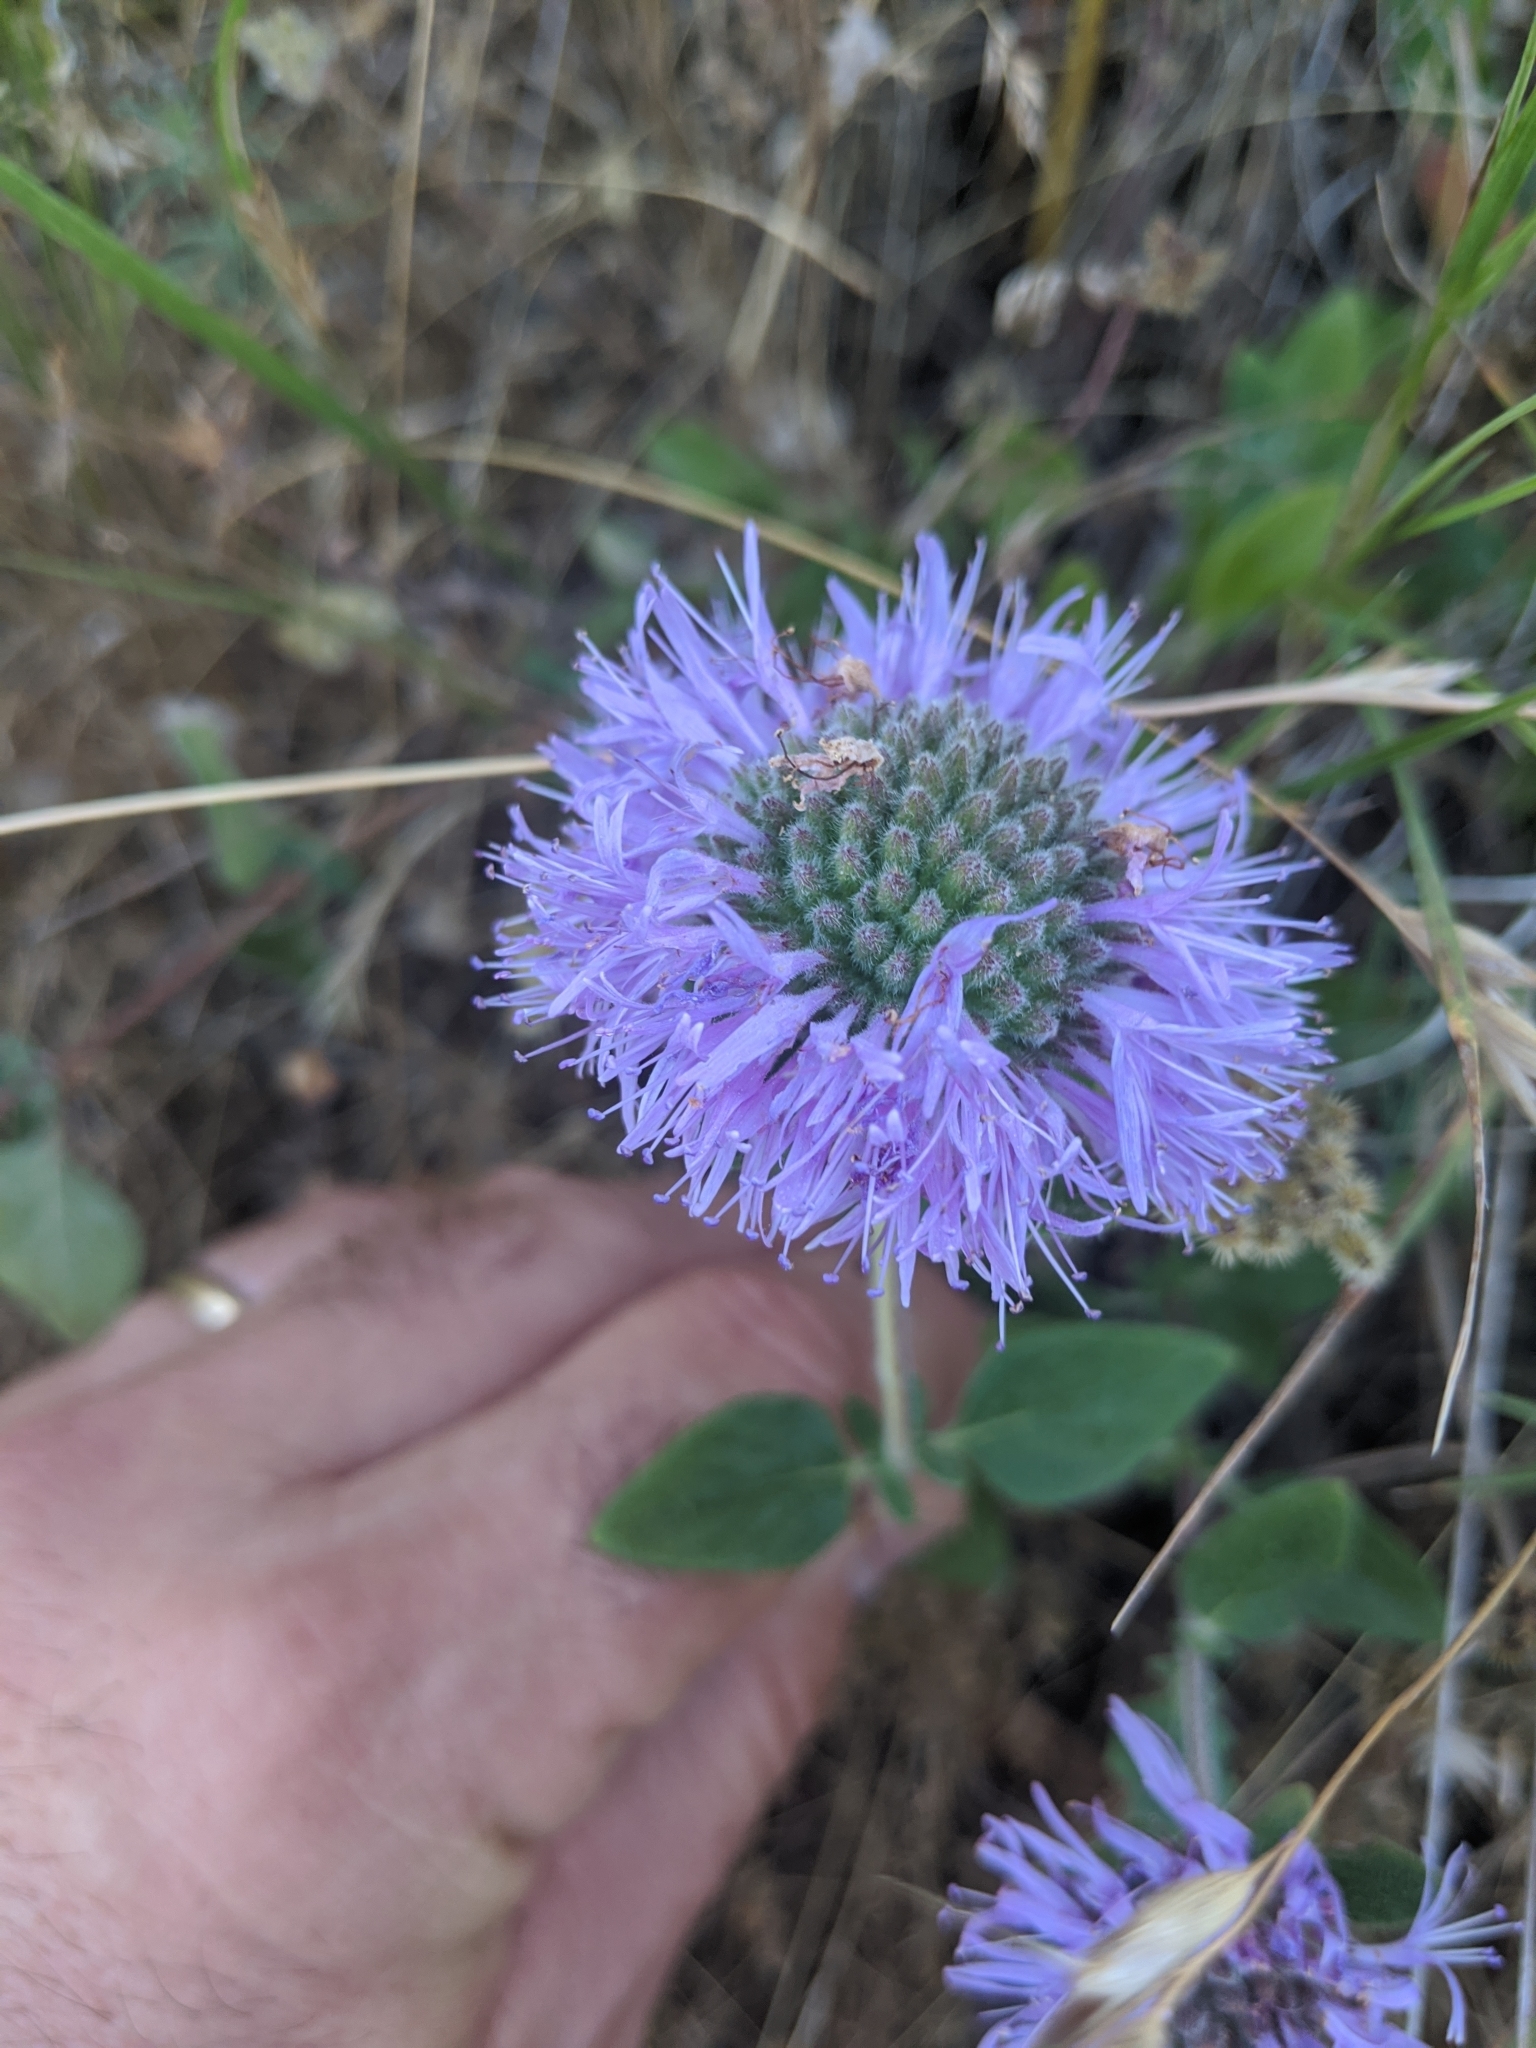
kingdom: Plantae
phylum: Tracheophyta
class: Magnoliopsida
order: Lamiales
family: Lamiaceae
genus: Monardella
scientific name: Monardella odoratissima
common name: Pacific monardella
